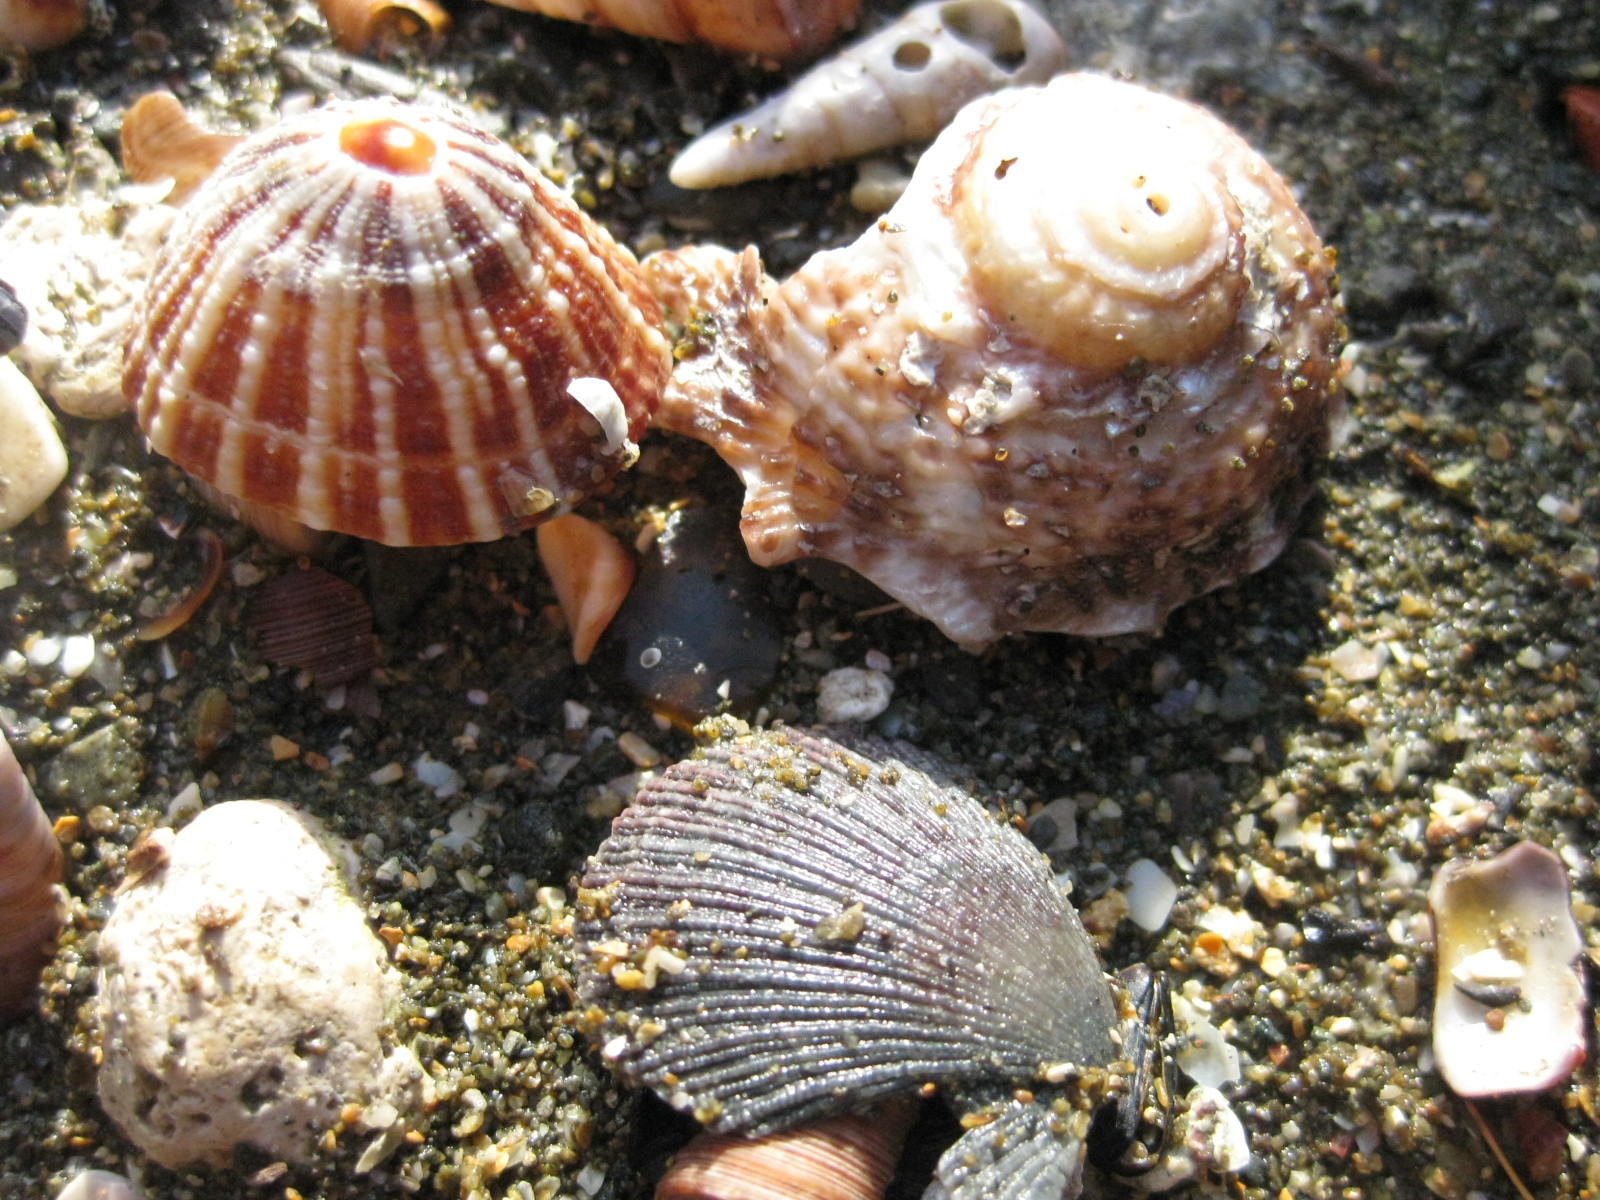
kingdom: Animalia
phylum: Mollusca
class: Gastropoda
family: Nacellidae
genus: Cellana
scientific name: Cellana stellifera
